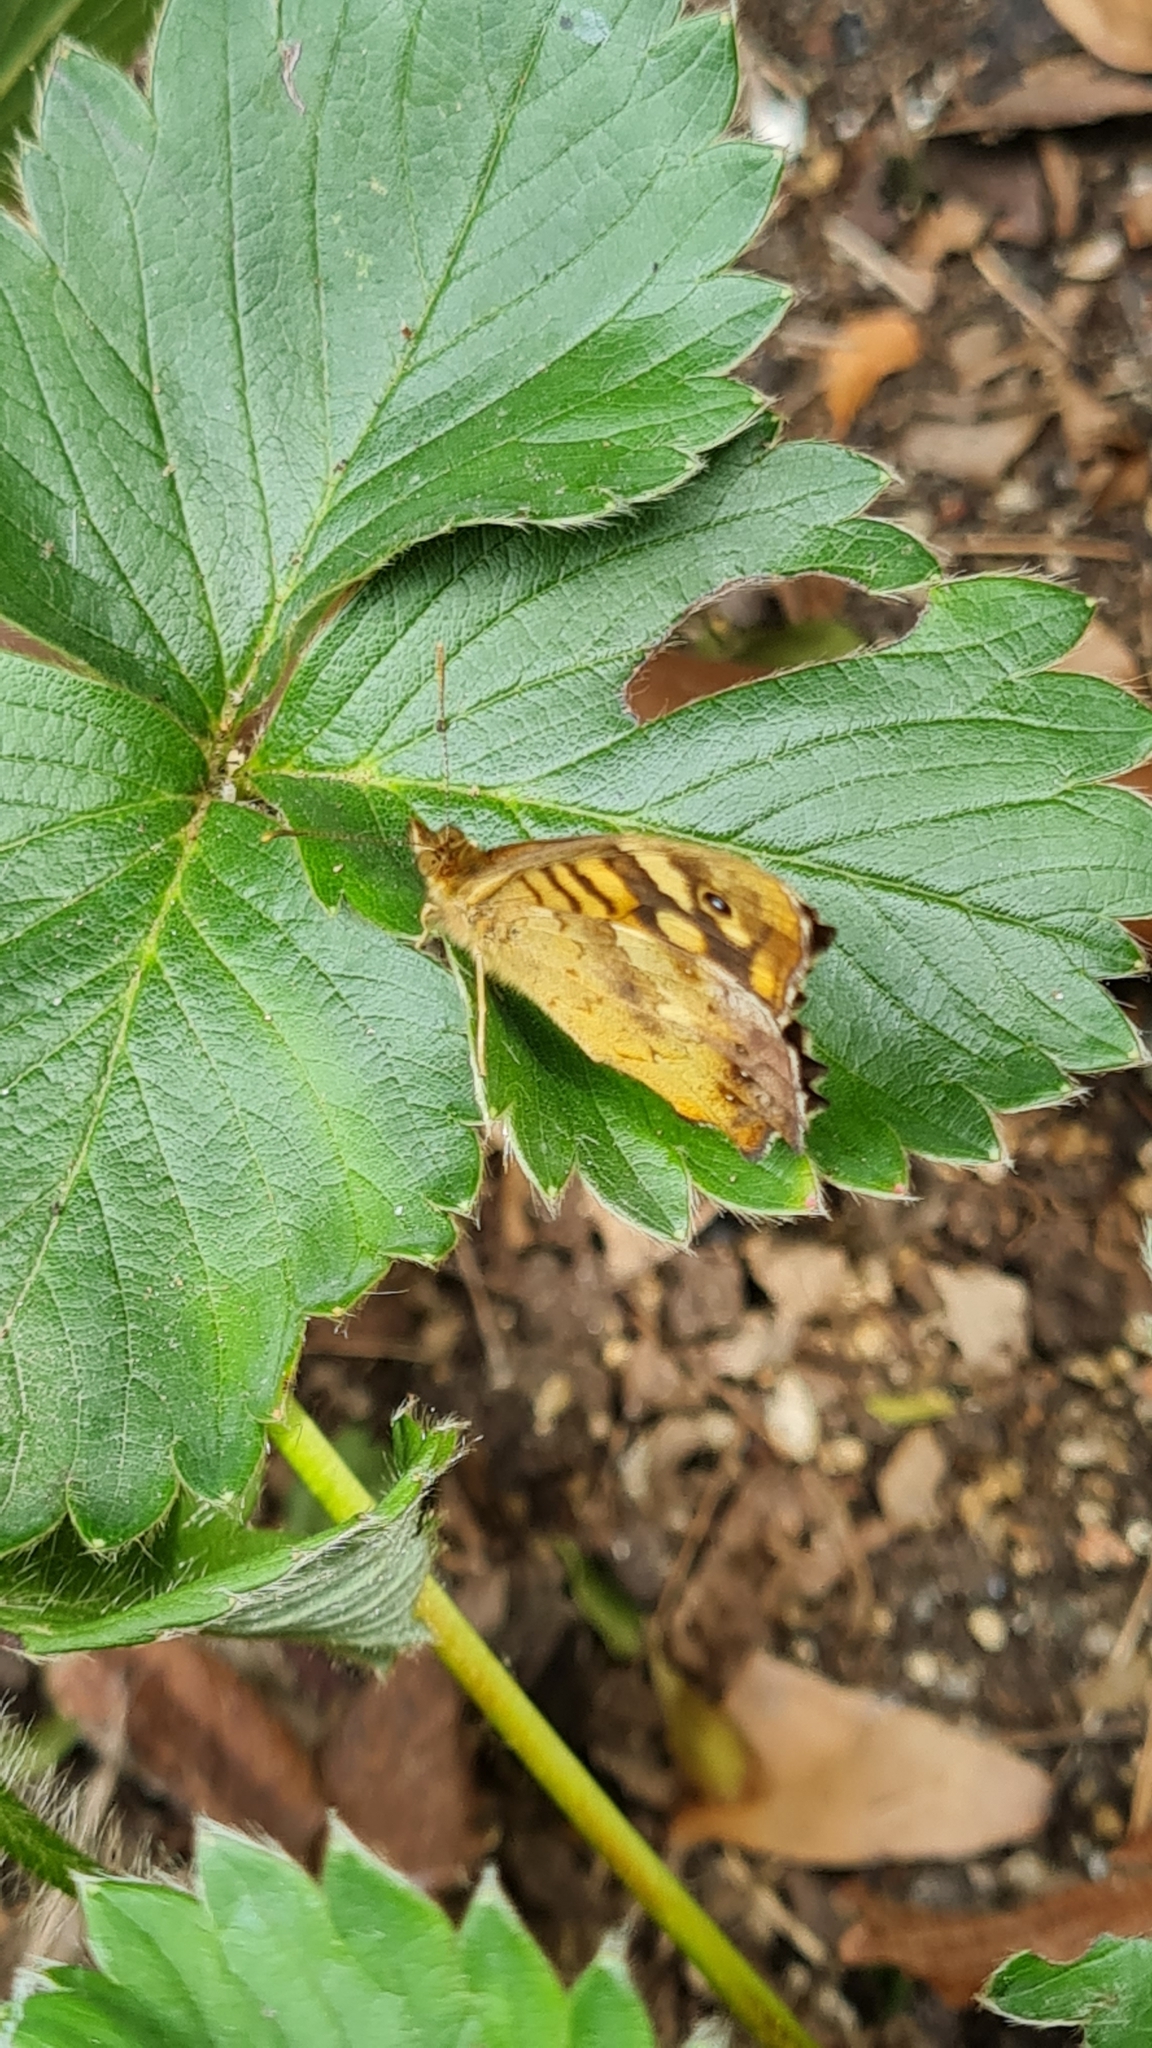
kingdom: Animalia
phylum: Arthropoda
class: Insecta
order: Lepidoptera
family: Nymphalidae
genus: Pararge
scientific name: Pararge aegeria
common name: Speckled wood
